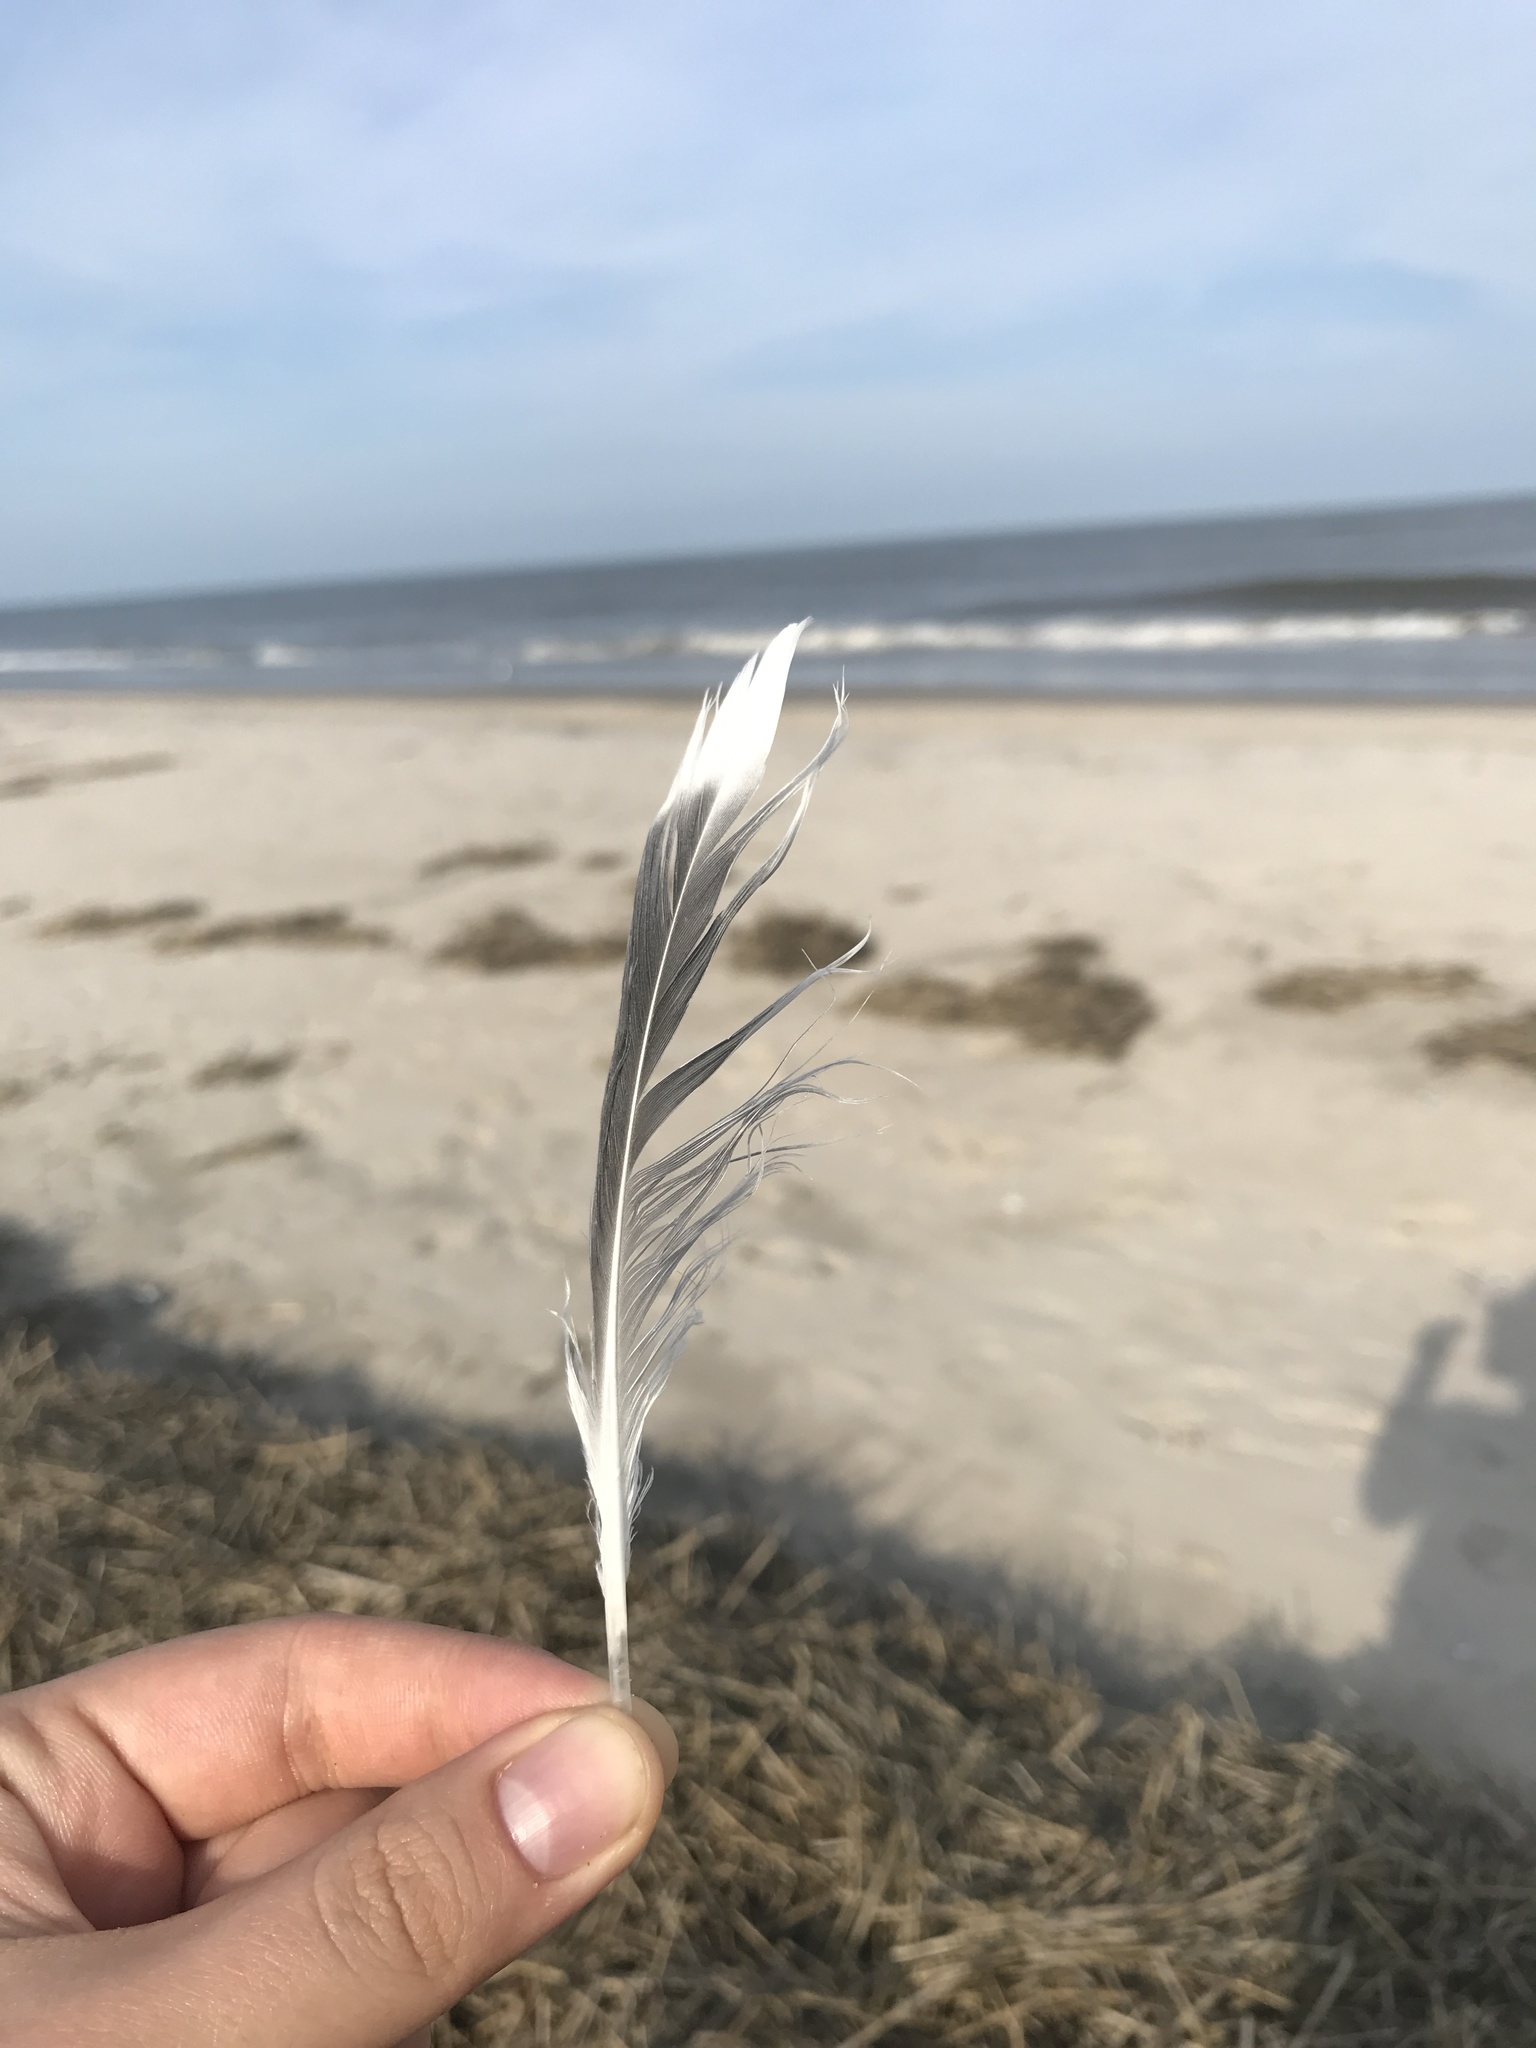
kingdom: Animalia
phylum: Chordata
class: Aves
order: Charadriiformes
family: Laridae
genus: Leucophaeus
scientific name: Leucophaeus atricilla
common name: Laughing gull
